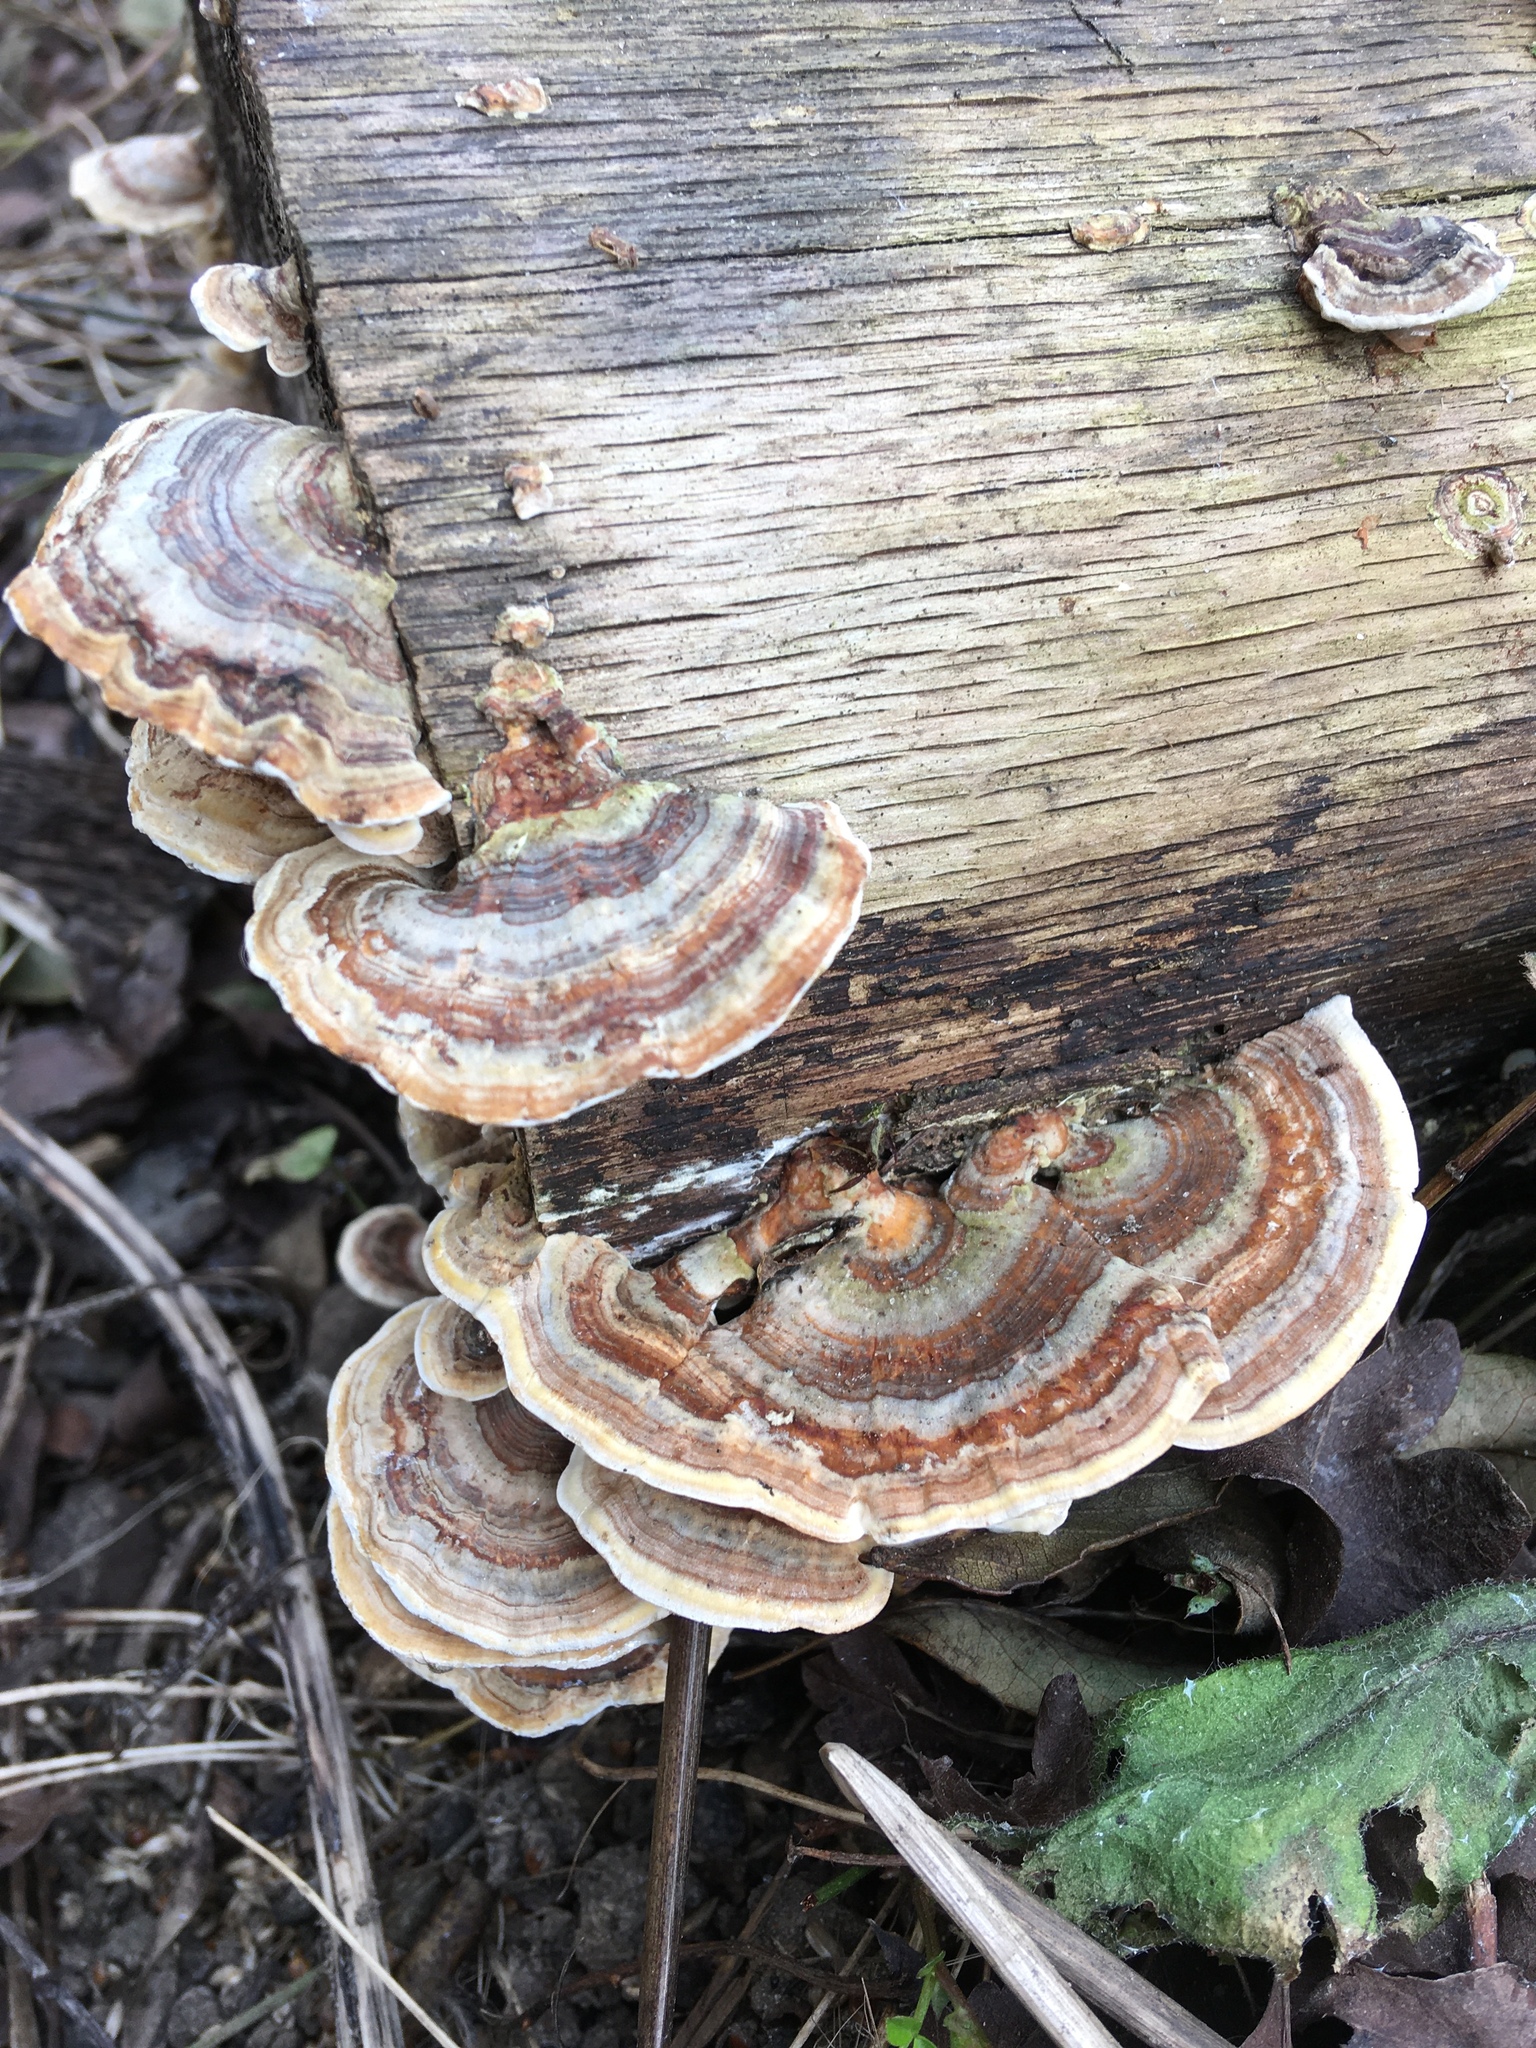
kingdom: Fungi
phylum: Basidiomycota
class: Agaricomycetes
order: Polyporales
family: Polyporaceae
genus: Trametes
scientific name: Trametes versicolor
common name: Turkeytail
